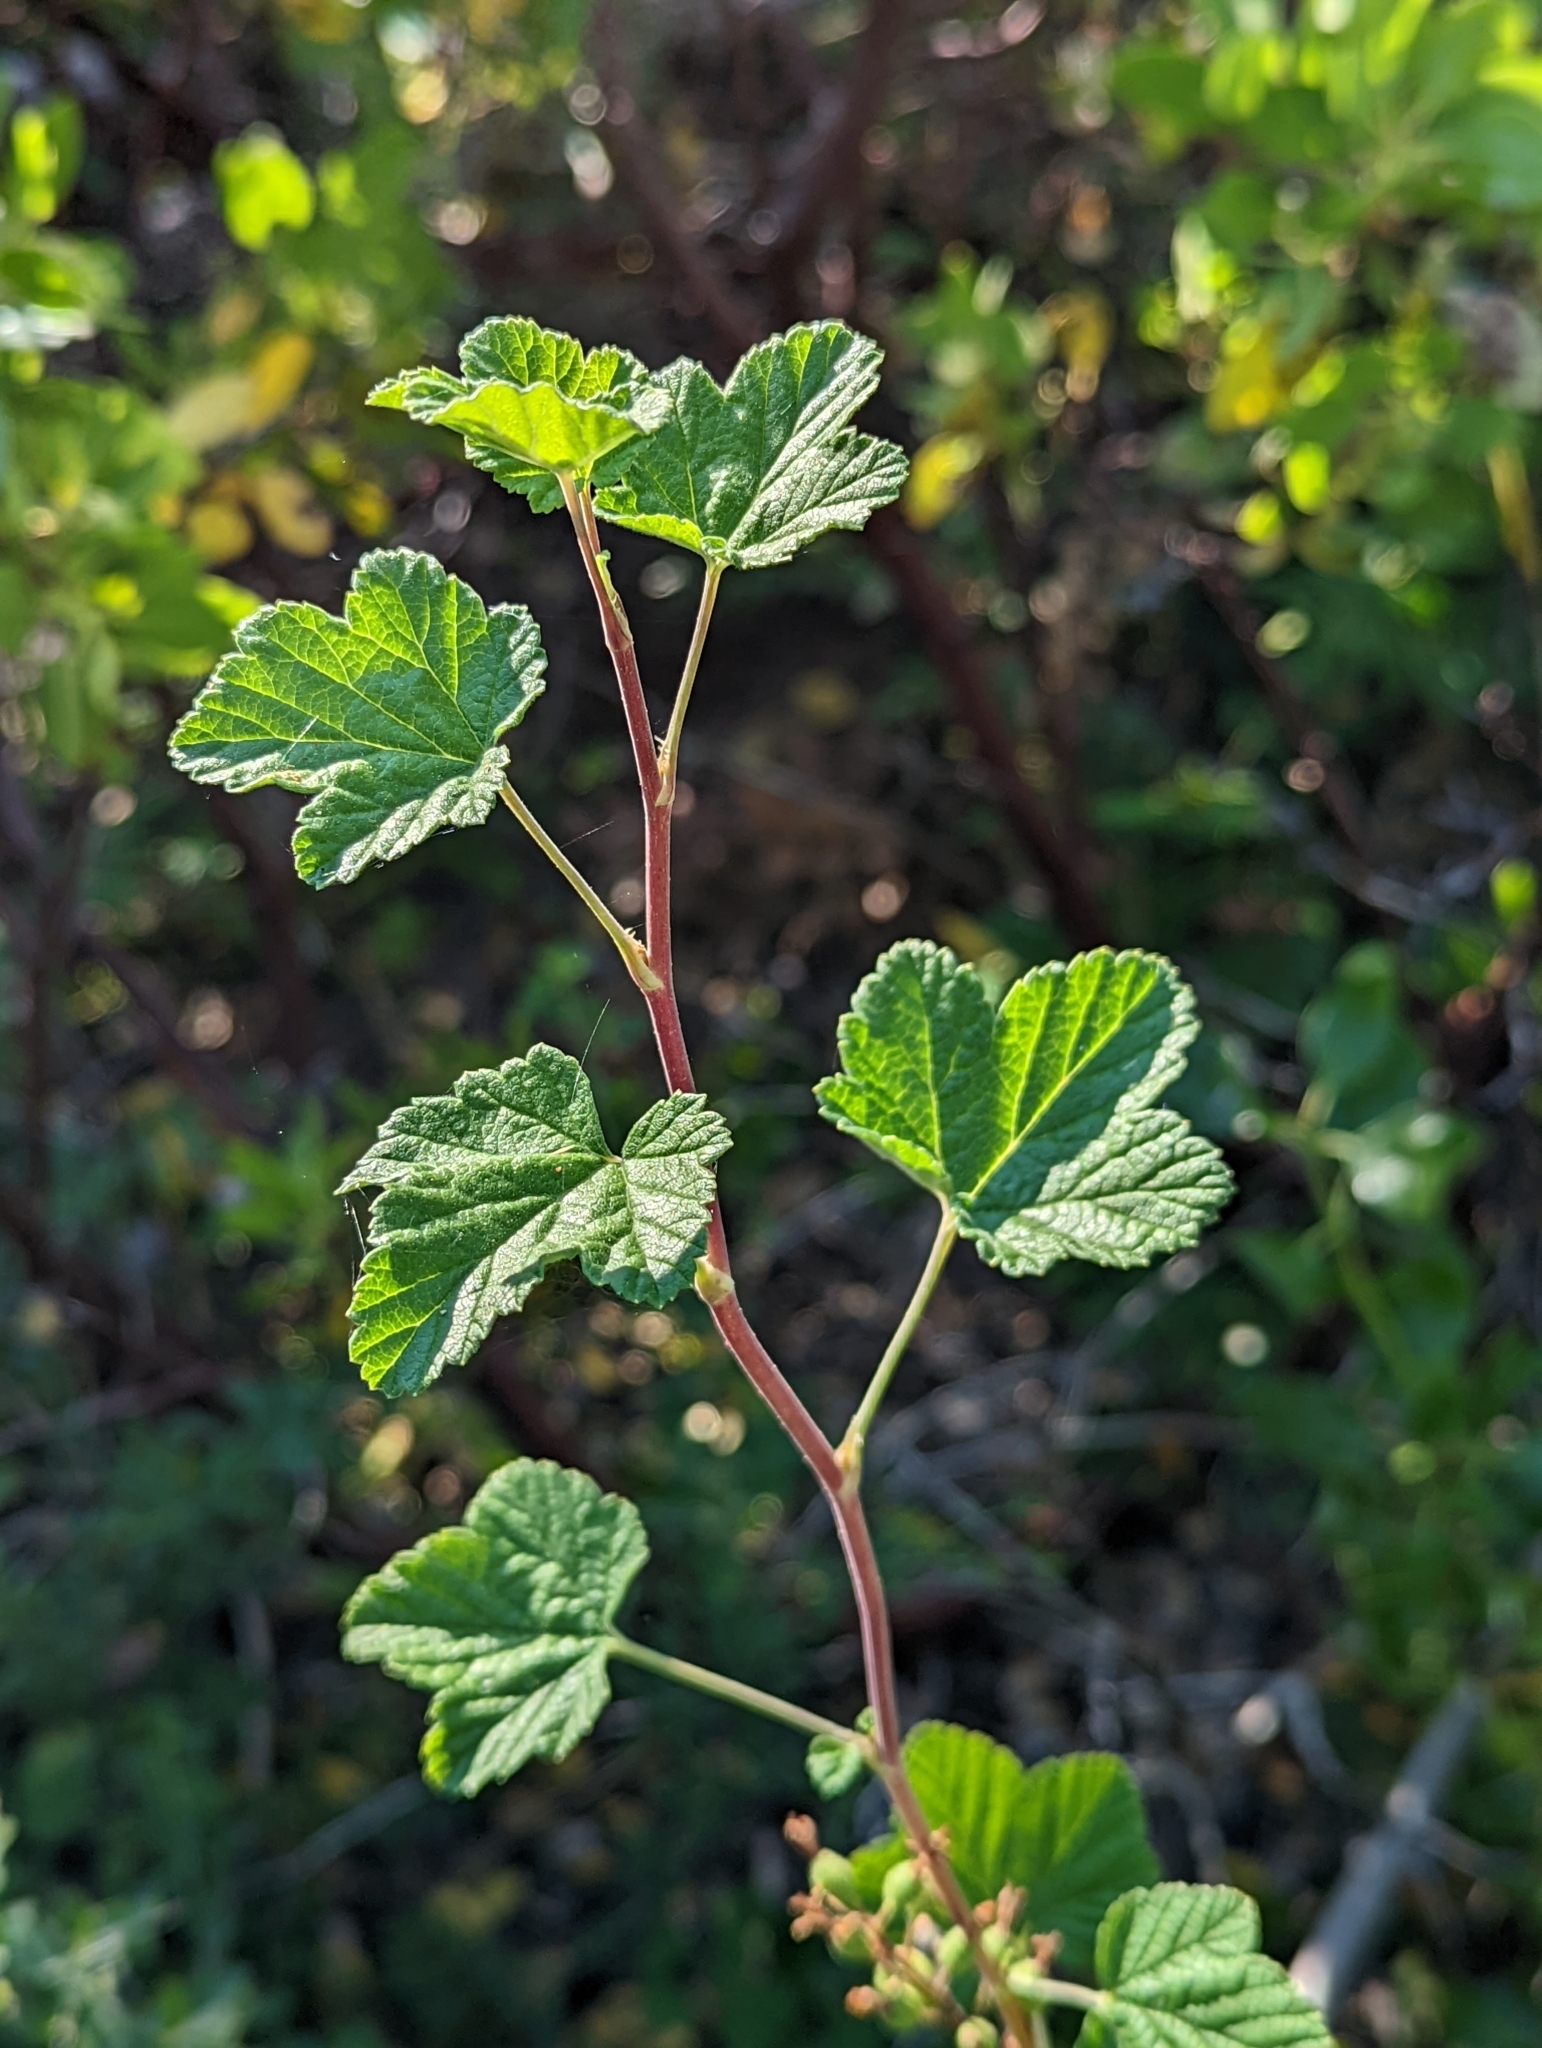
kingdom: Plantae
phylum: Tracheophyta
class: Magnoliopsida
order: Saxifragales
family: Grossulariaceae
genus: Ribes
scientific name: Ribes sanguineum
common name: Flowering currant
